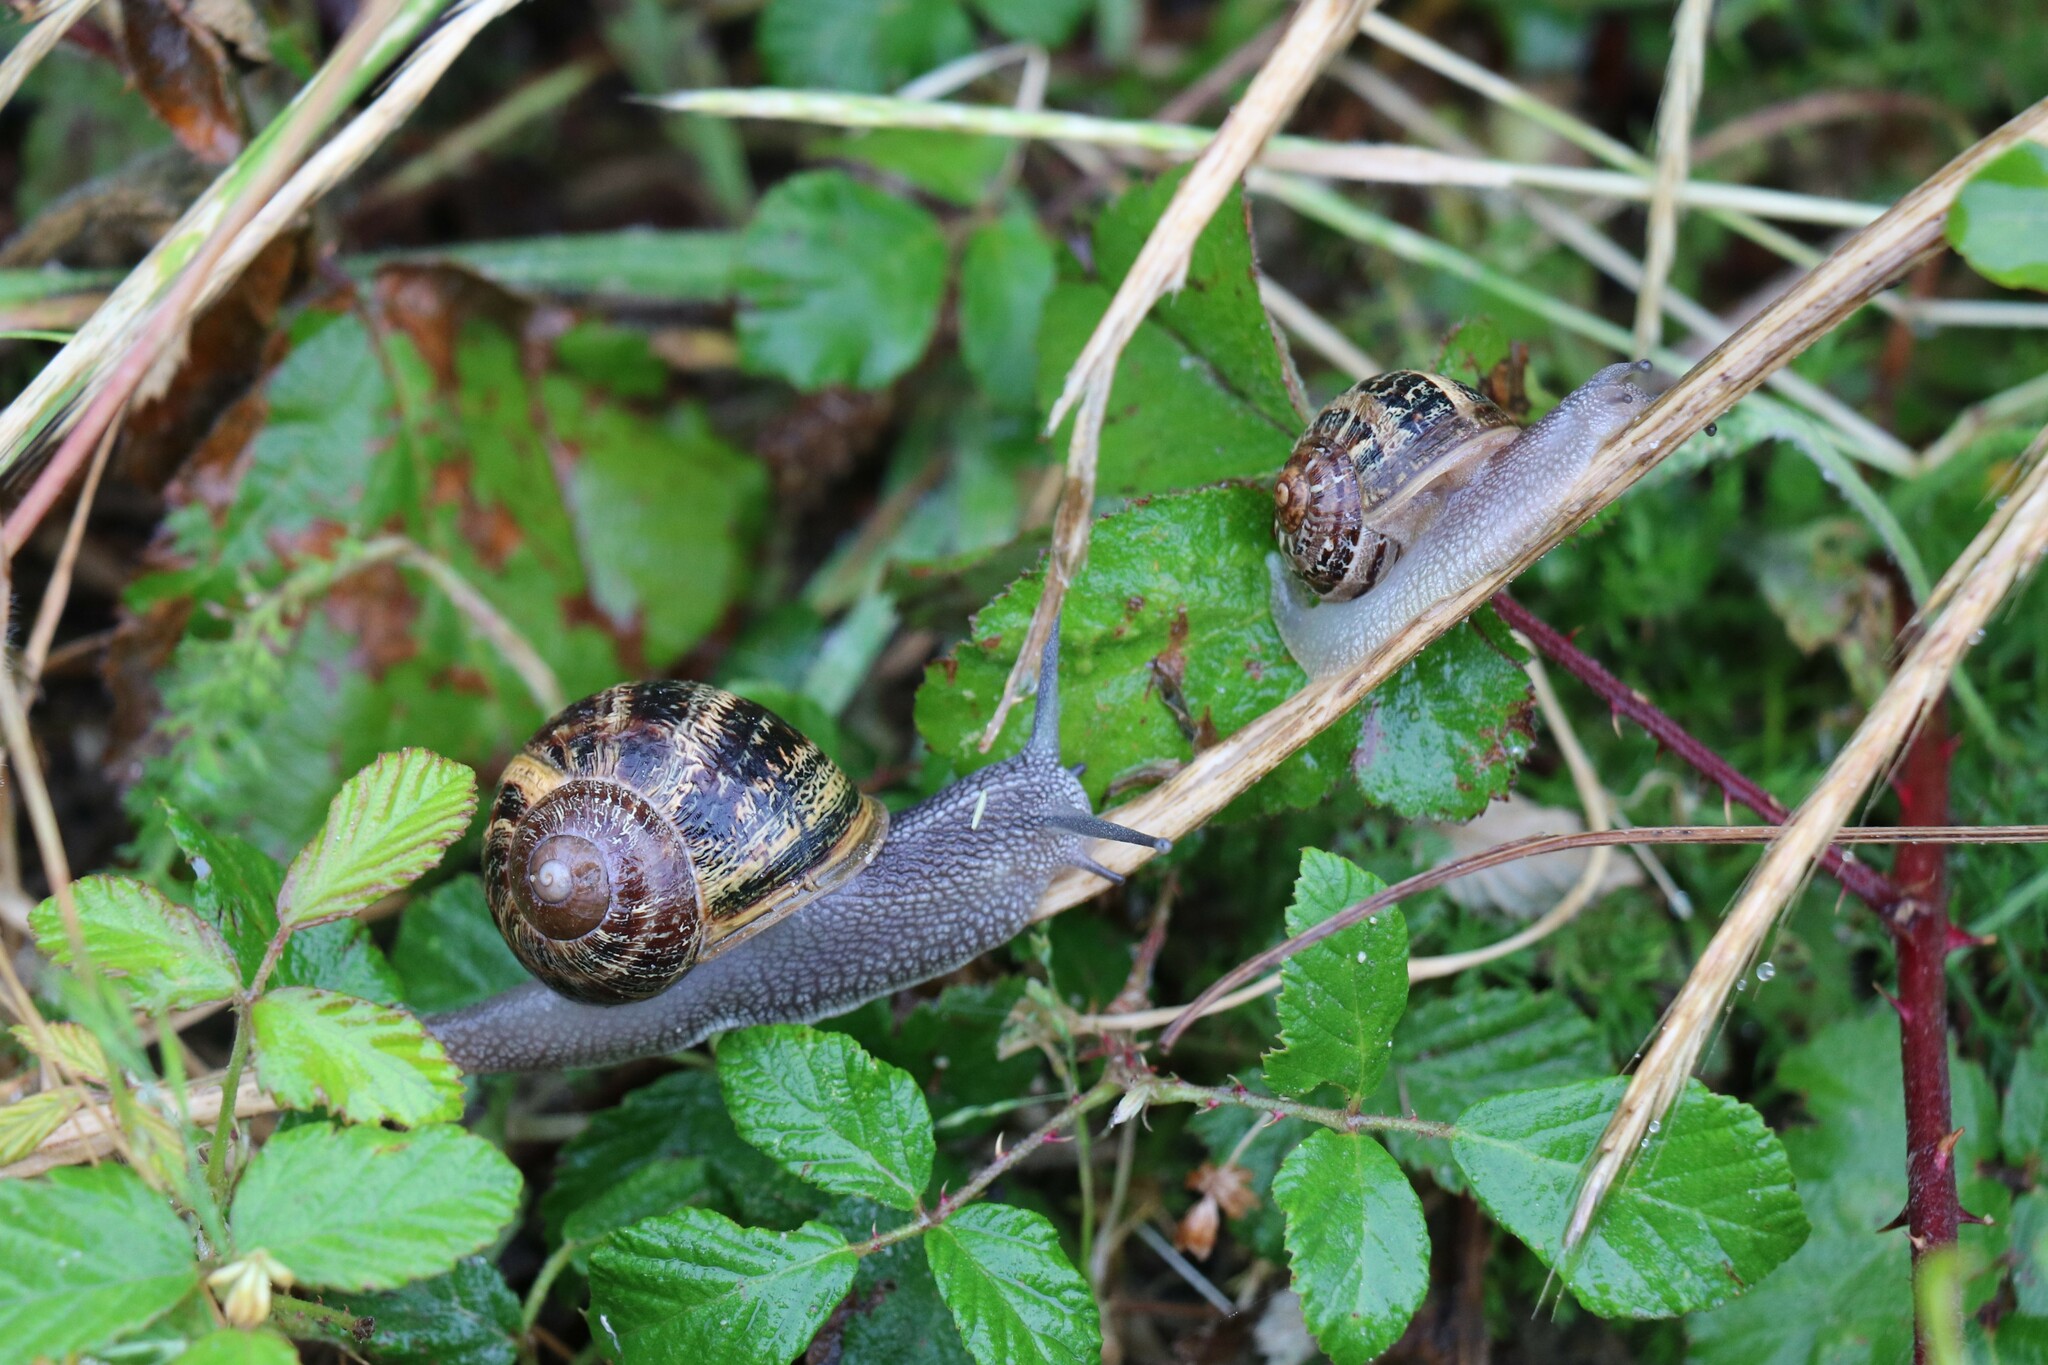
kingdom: Animalia
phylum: Mollusca
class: Gastropoda
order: Stylommatophora
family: Helicidae
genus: Cornu
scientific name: Cornu aspersum
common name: Brown garden snail
